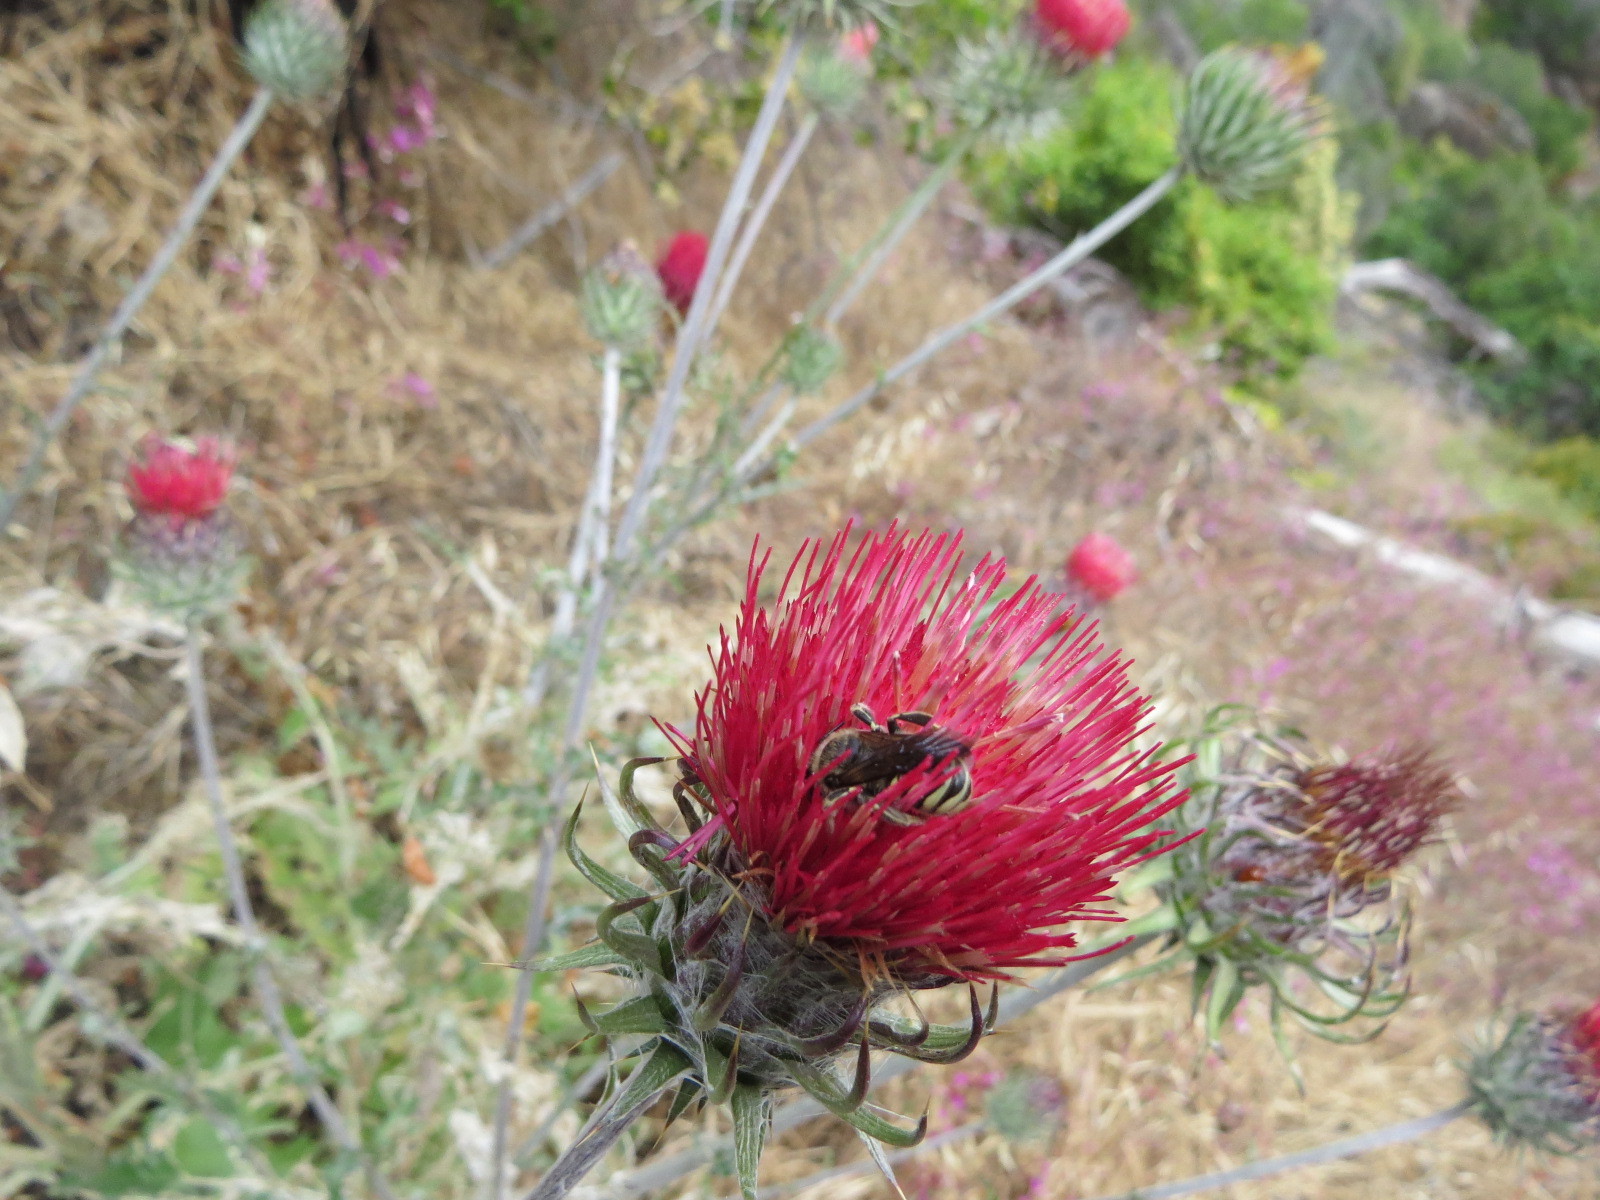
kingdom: Animalia
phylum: Arthropoda
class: Insecta
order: Hymenoptera
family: Megachilidae
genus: Trachusa
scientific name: Trachusa timberlakei
